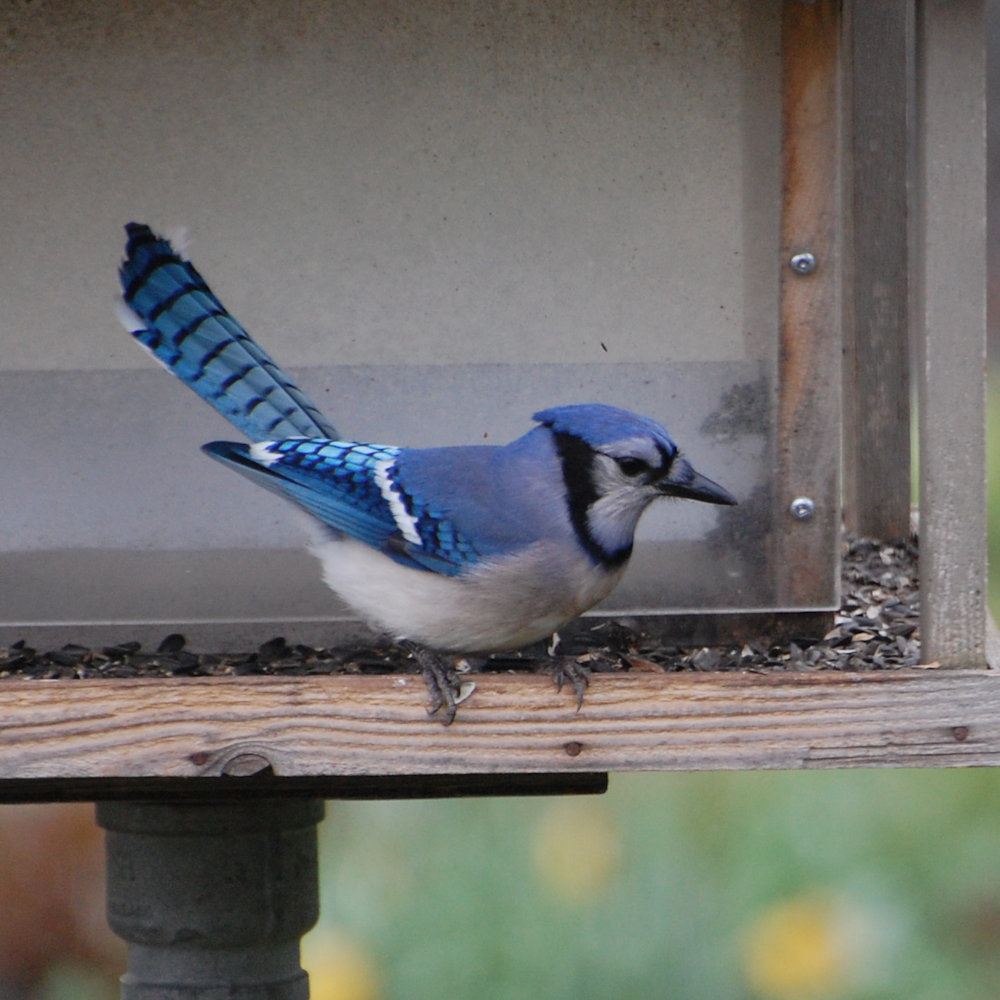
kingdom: Animalia
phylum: Chordata
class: Aves
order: Passeriformes
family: Corvidae
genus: Cyanocitta
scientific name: Cyanocitta cristata
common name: Blue jay
